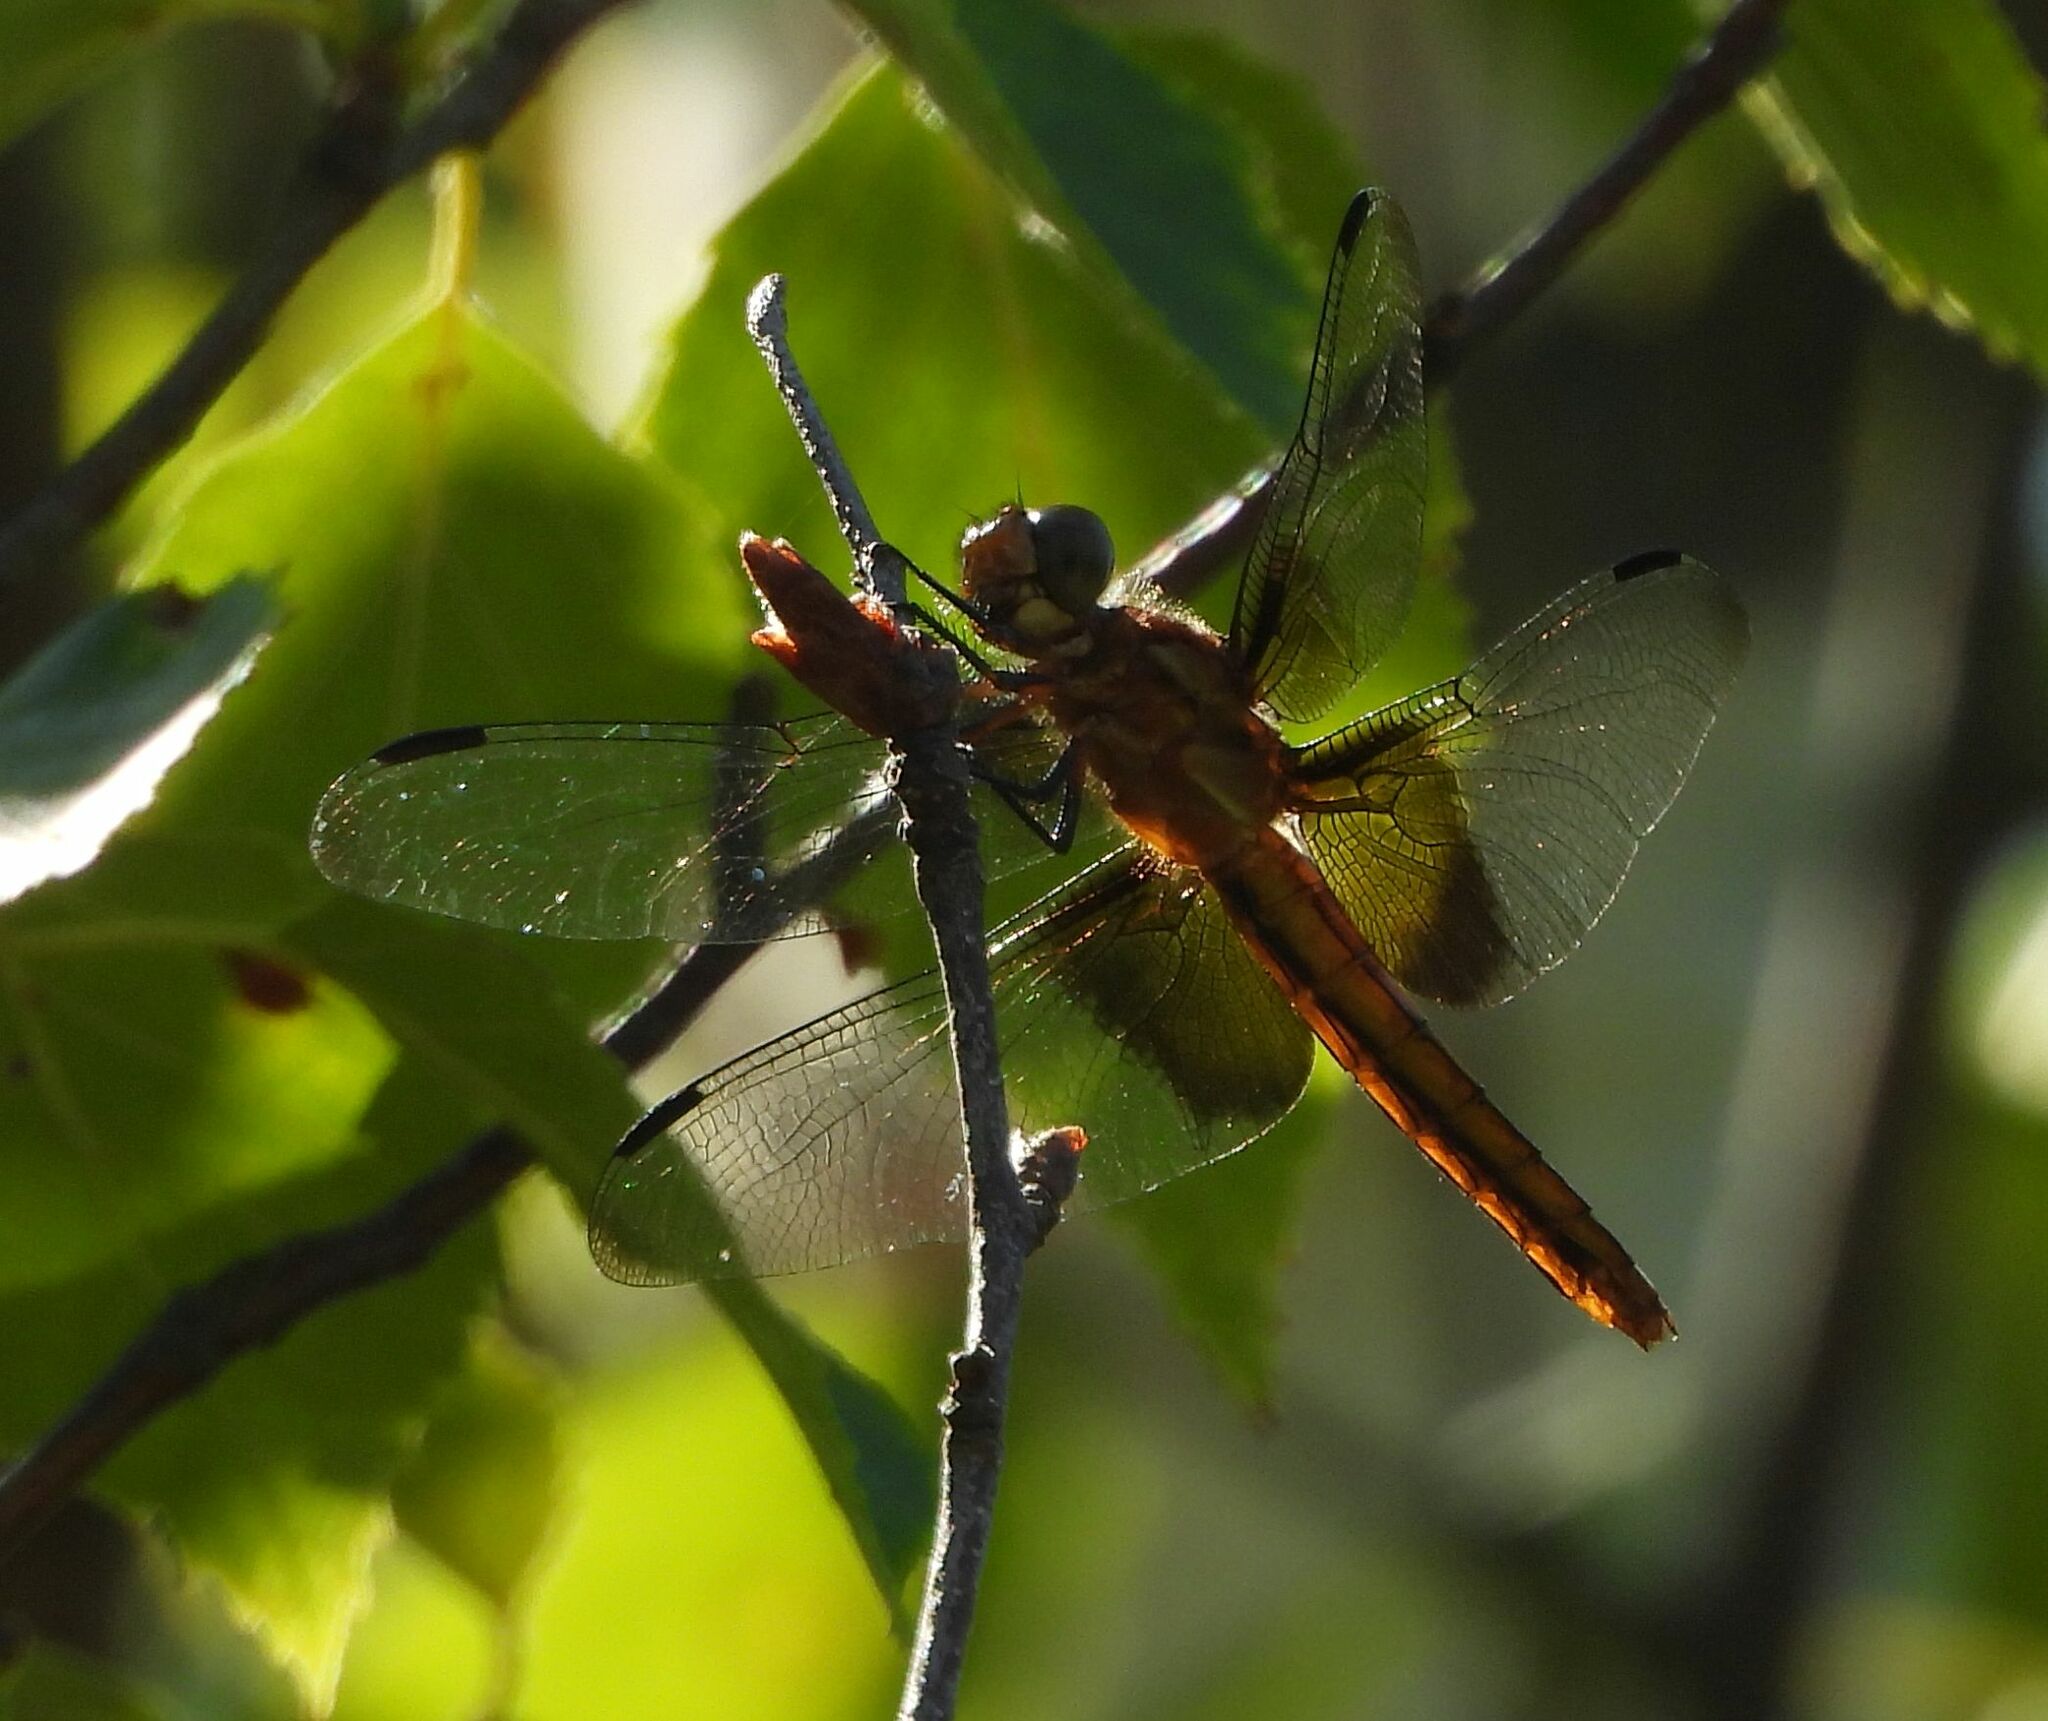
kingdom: Animalia
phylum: Arthropoda
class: Insecta
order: Odonata
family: Libellulidae
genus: Libellula
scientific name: Libellula luctuosa
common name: Widow skimmer
